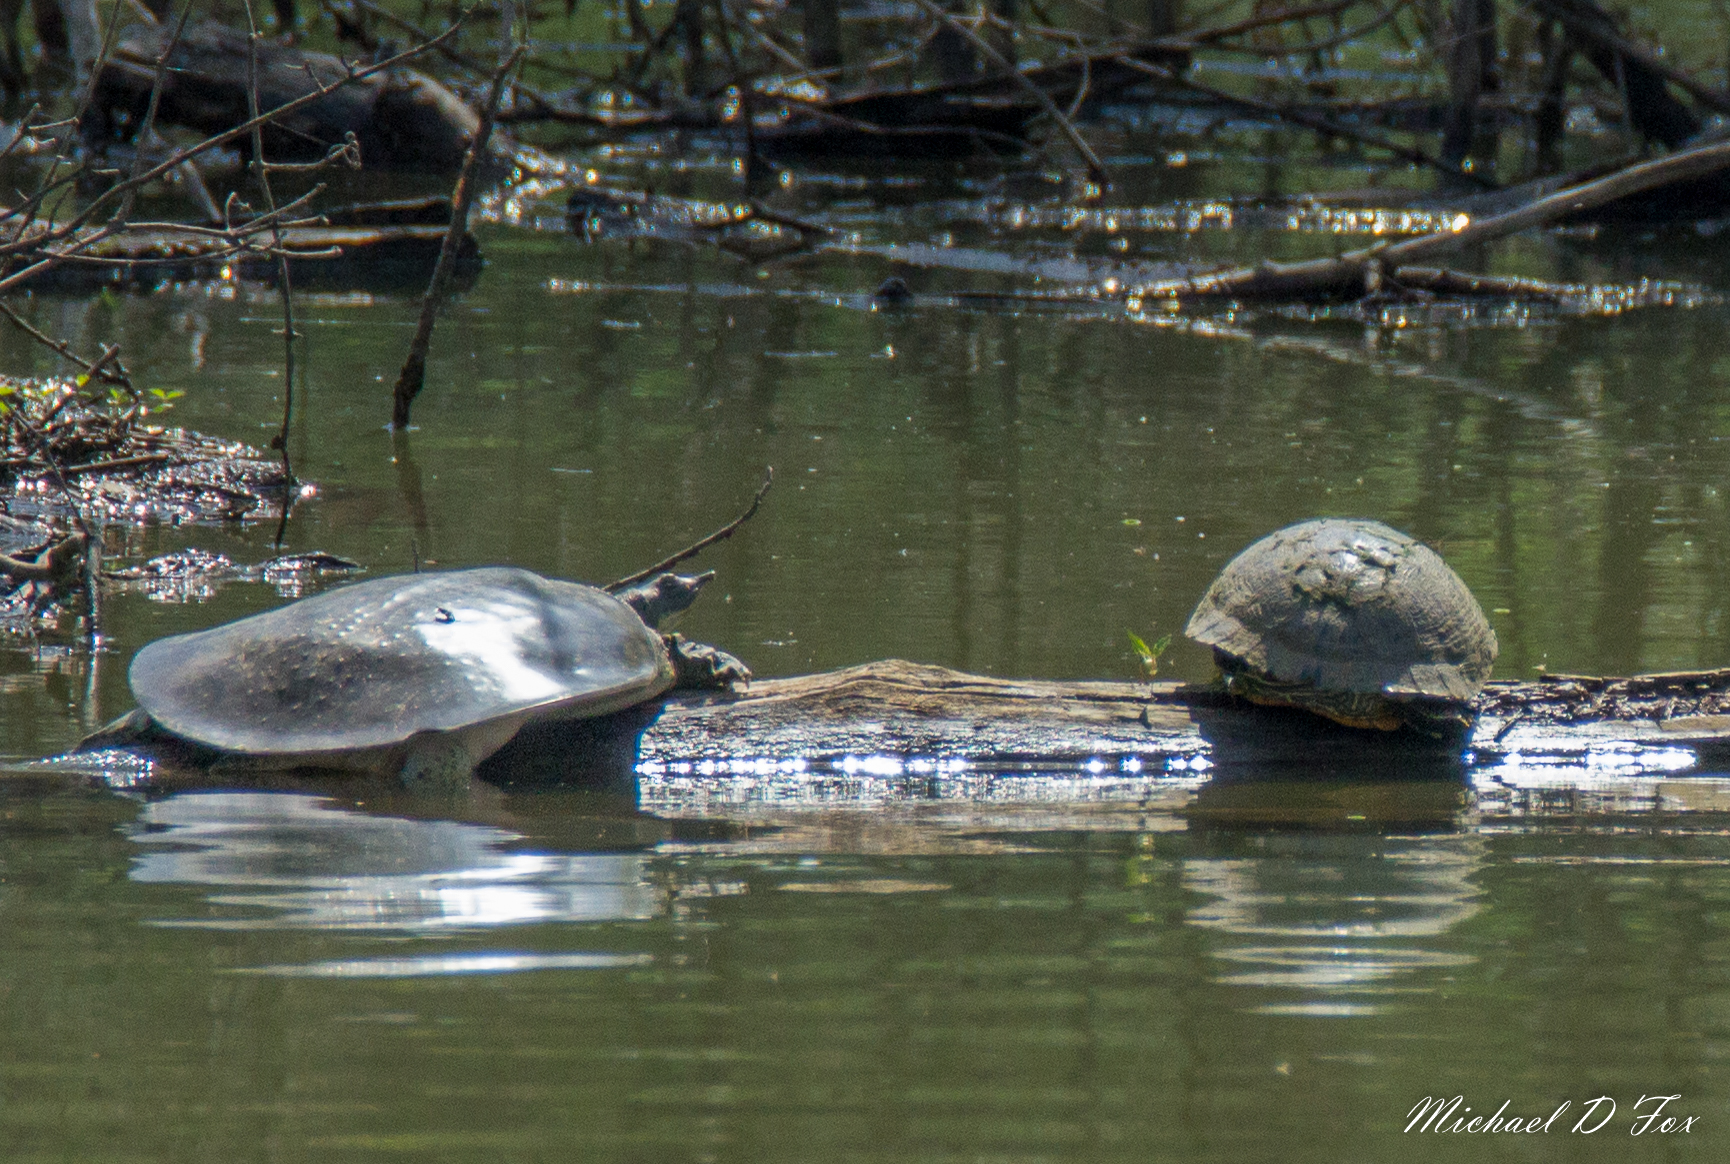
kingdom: Animalia
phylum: Chordata
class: Testudines
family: Trionychidae
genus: Apalone
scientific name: Apalone spinifera
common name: Spiny softshell turtle
